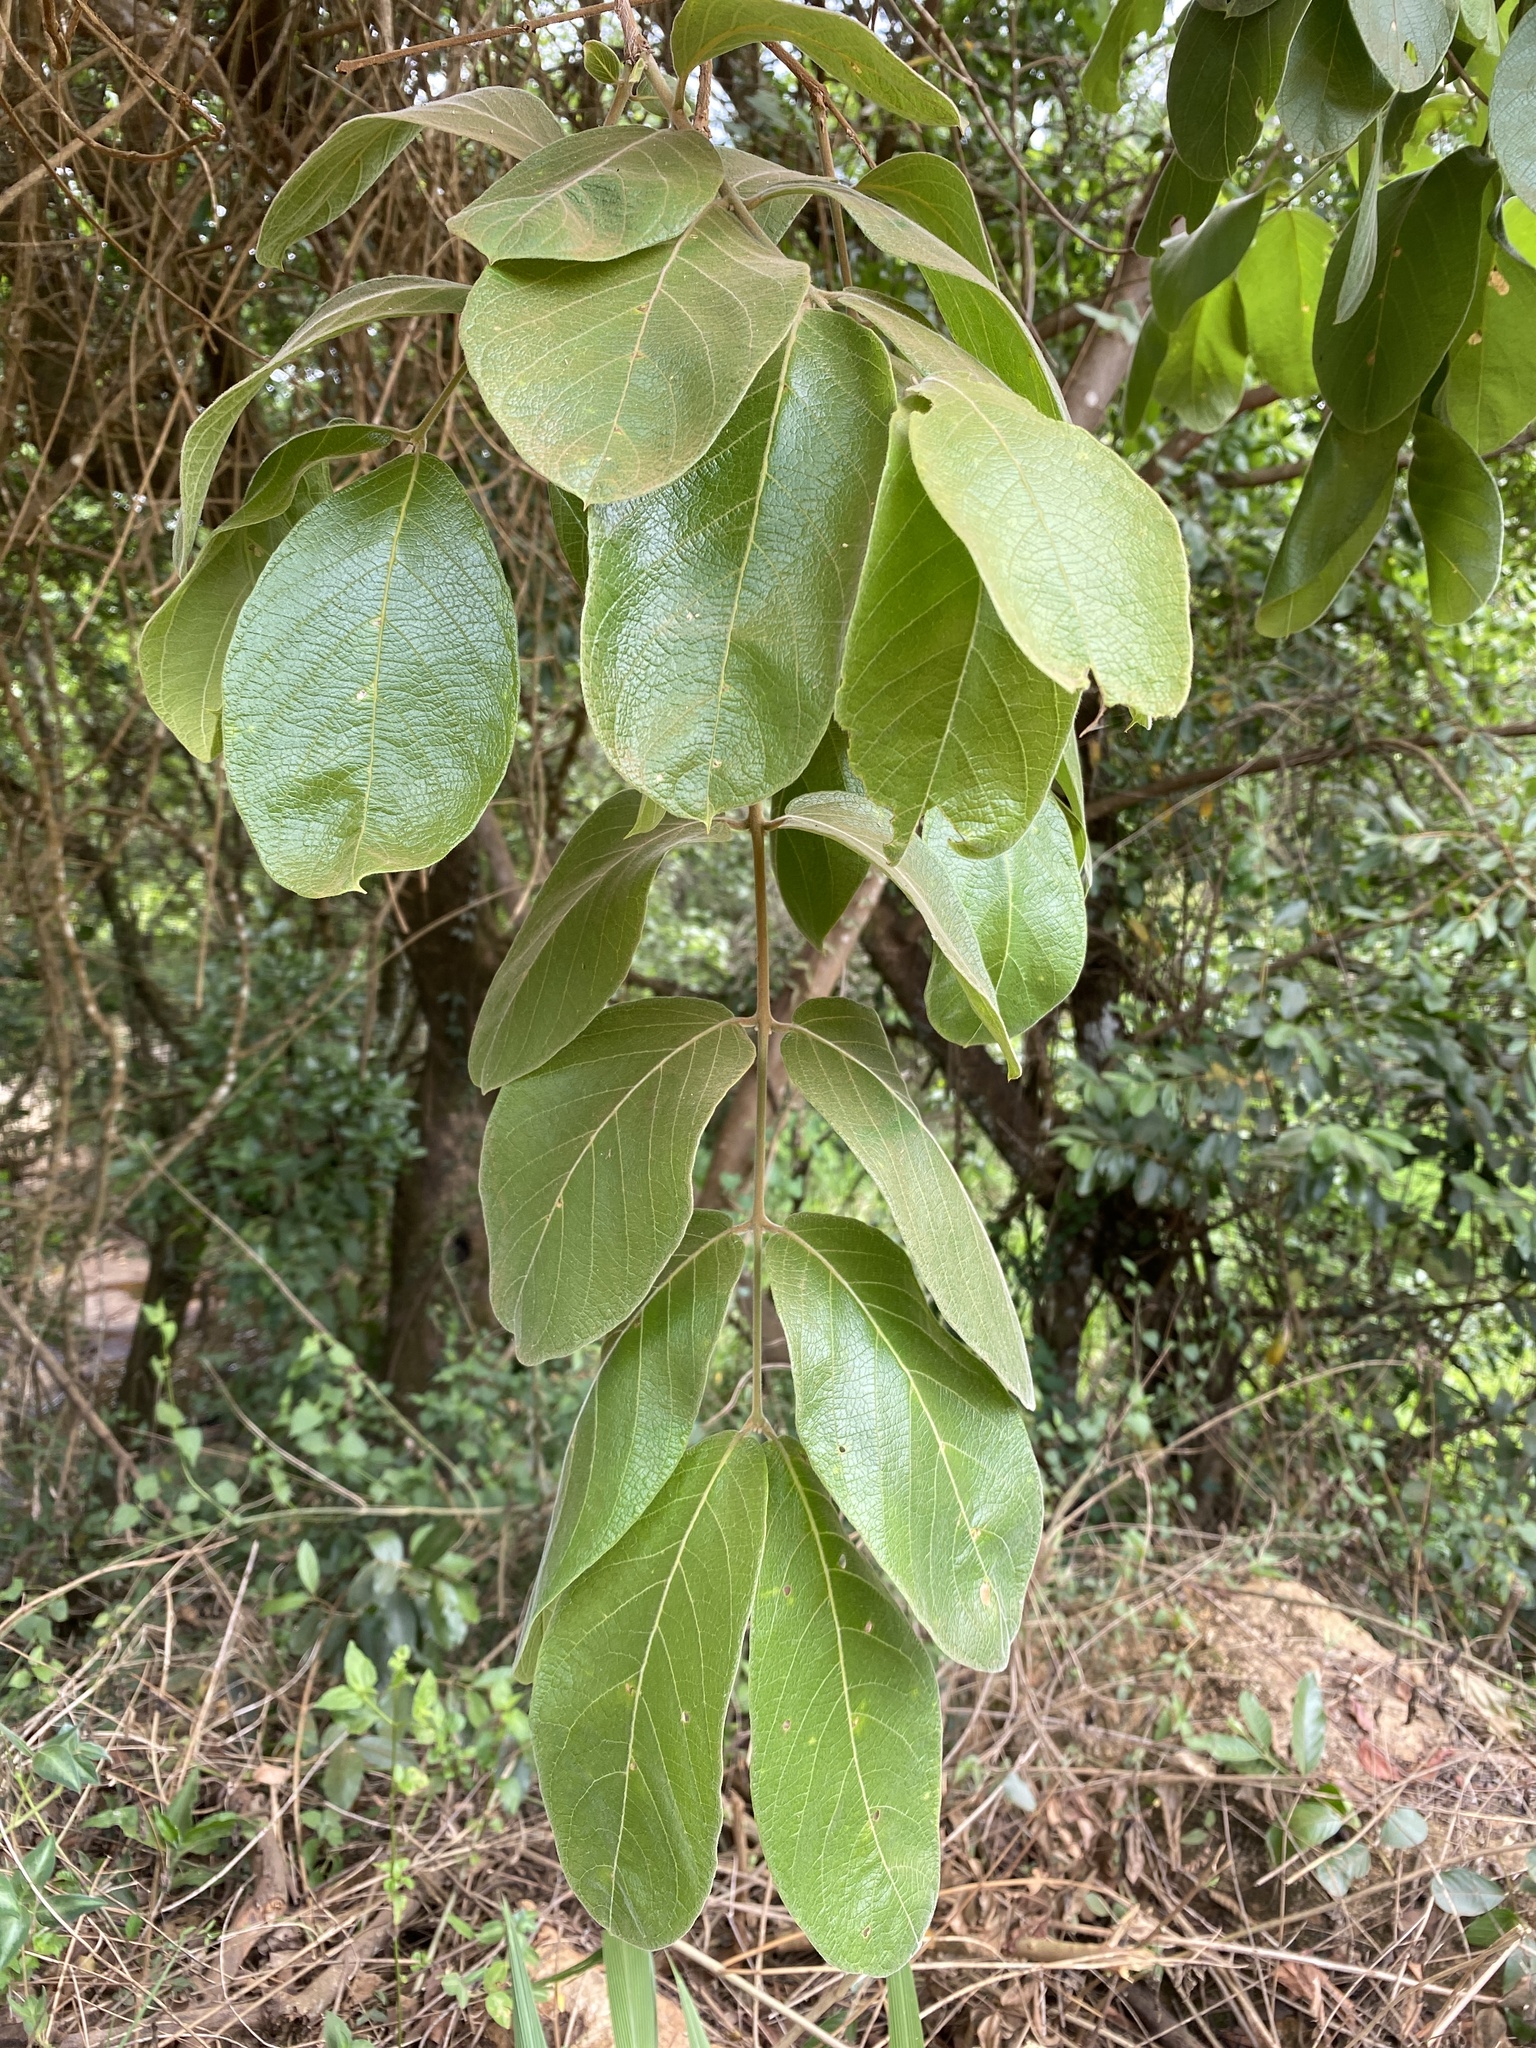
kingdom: Plantae
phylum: Tracheophyta
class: Magnoliopsida
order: Myrtales
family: Combretaceae
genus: Combretum
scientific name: Combretum molle
